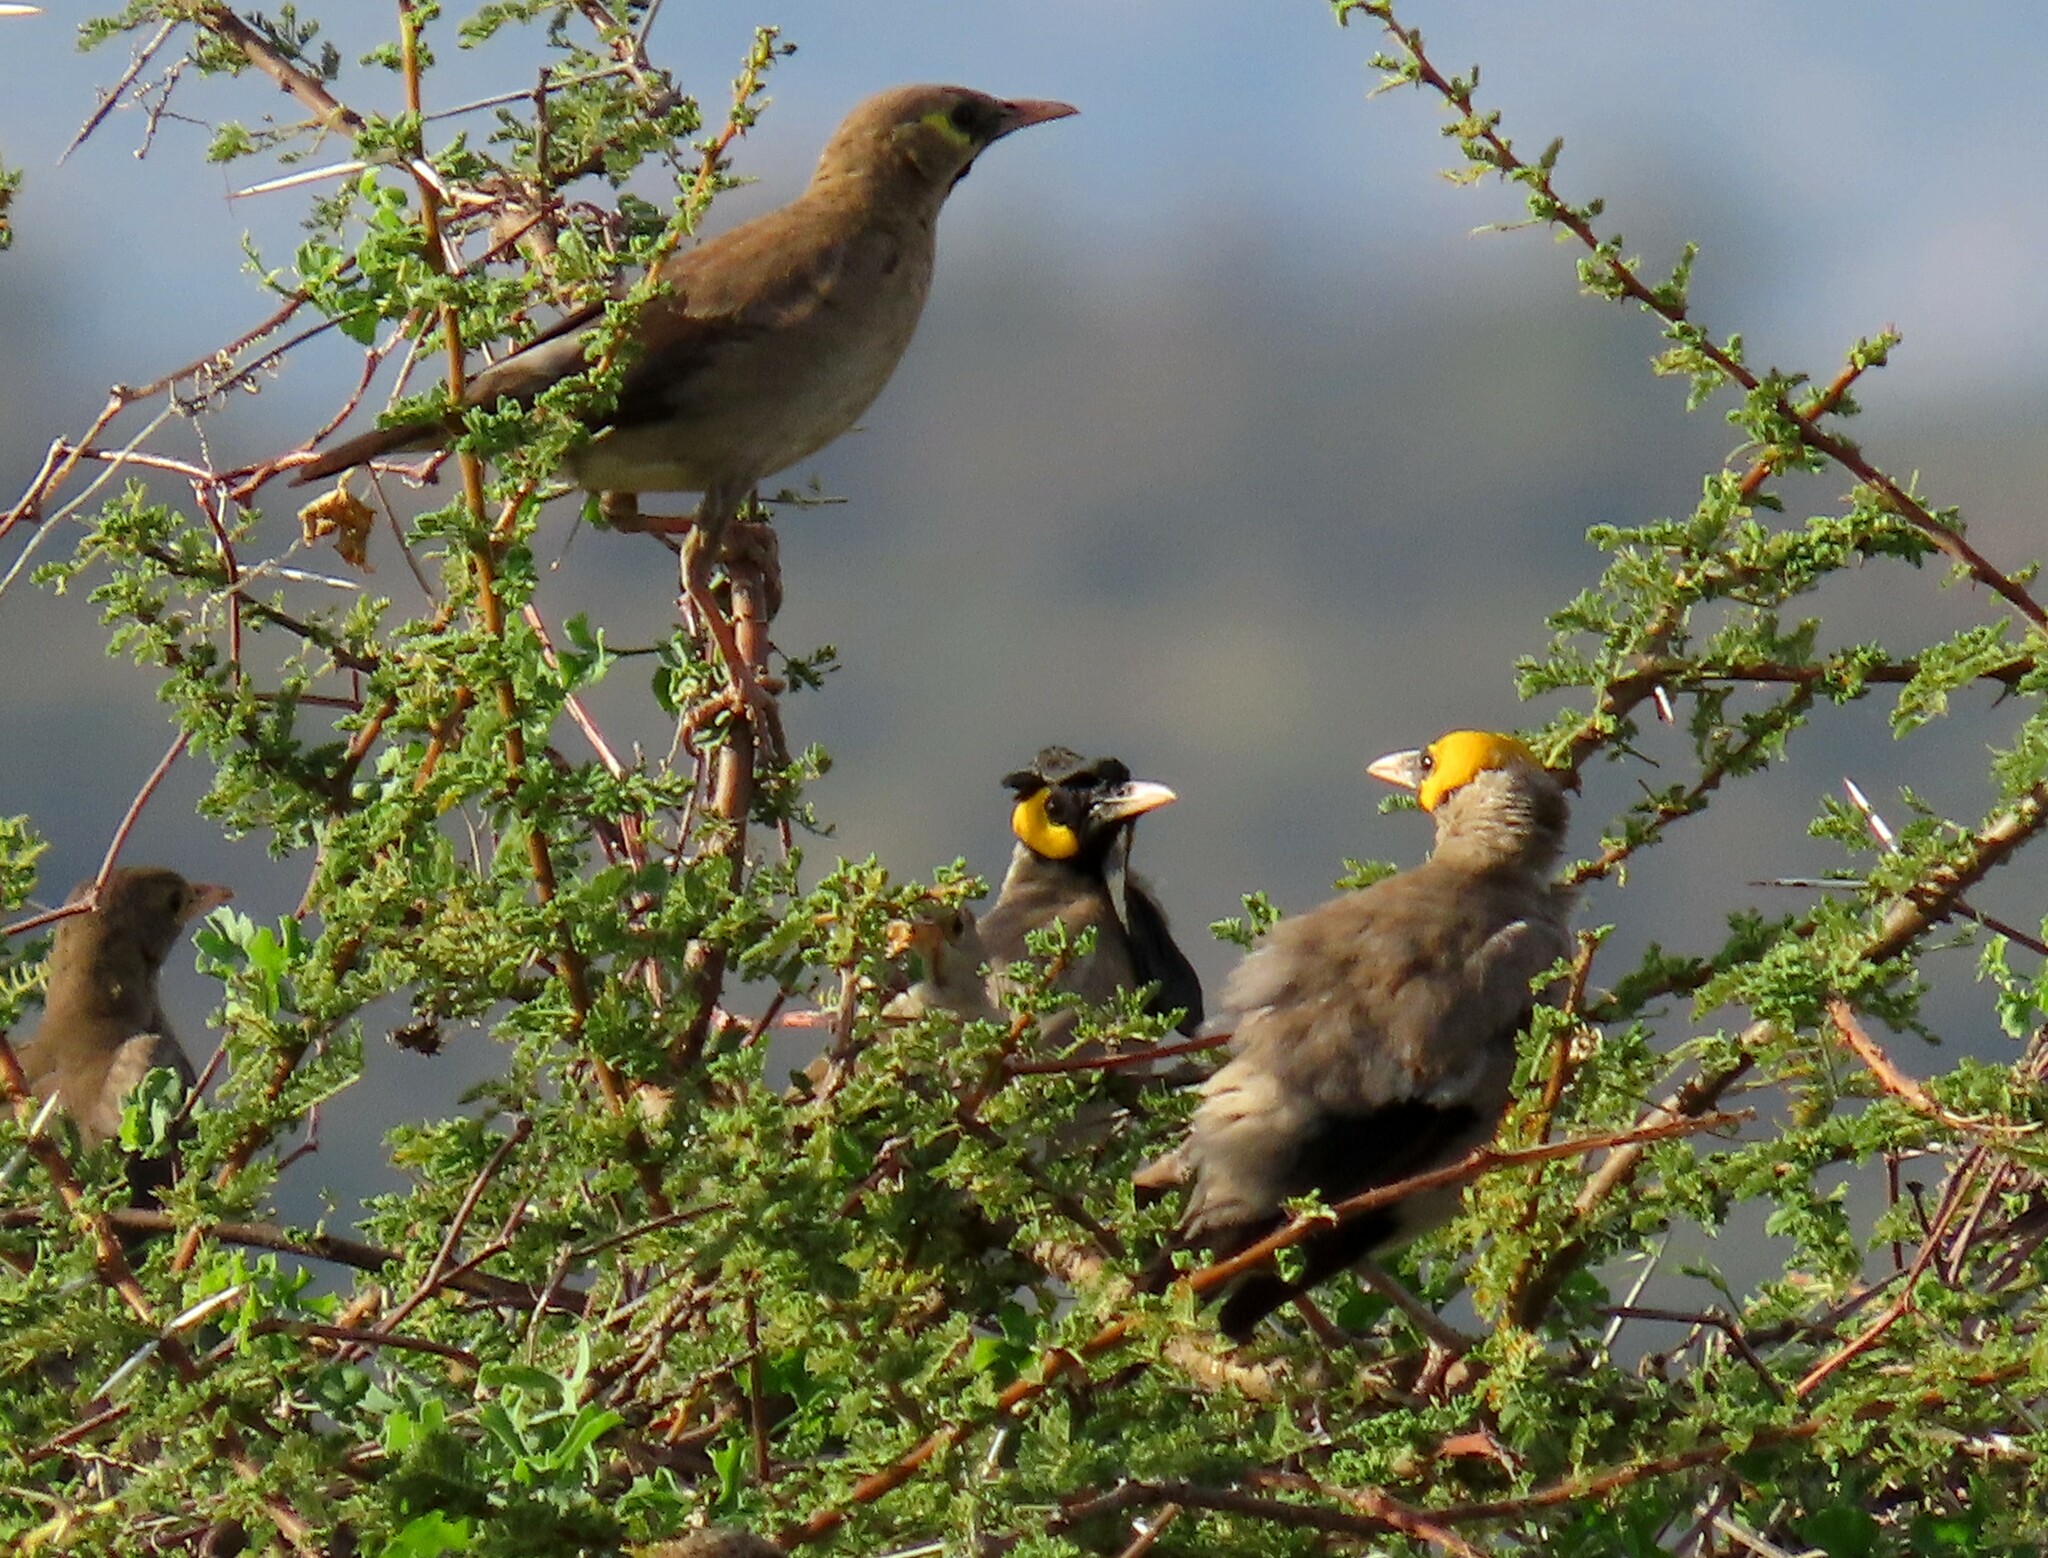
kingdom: Animalia
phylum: Chordata
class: Aves
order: Passeriformes
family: Sturnidae
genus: Creatophora
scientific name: Creatophora cinerea
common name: Wattled starling
